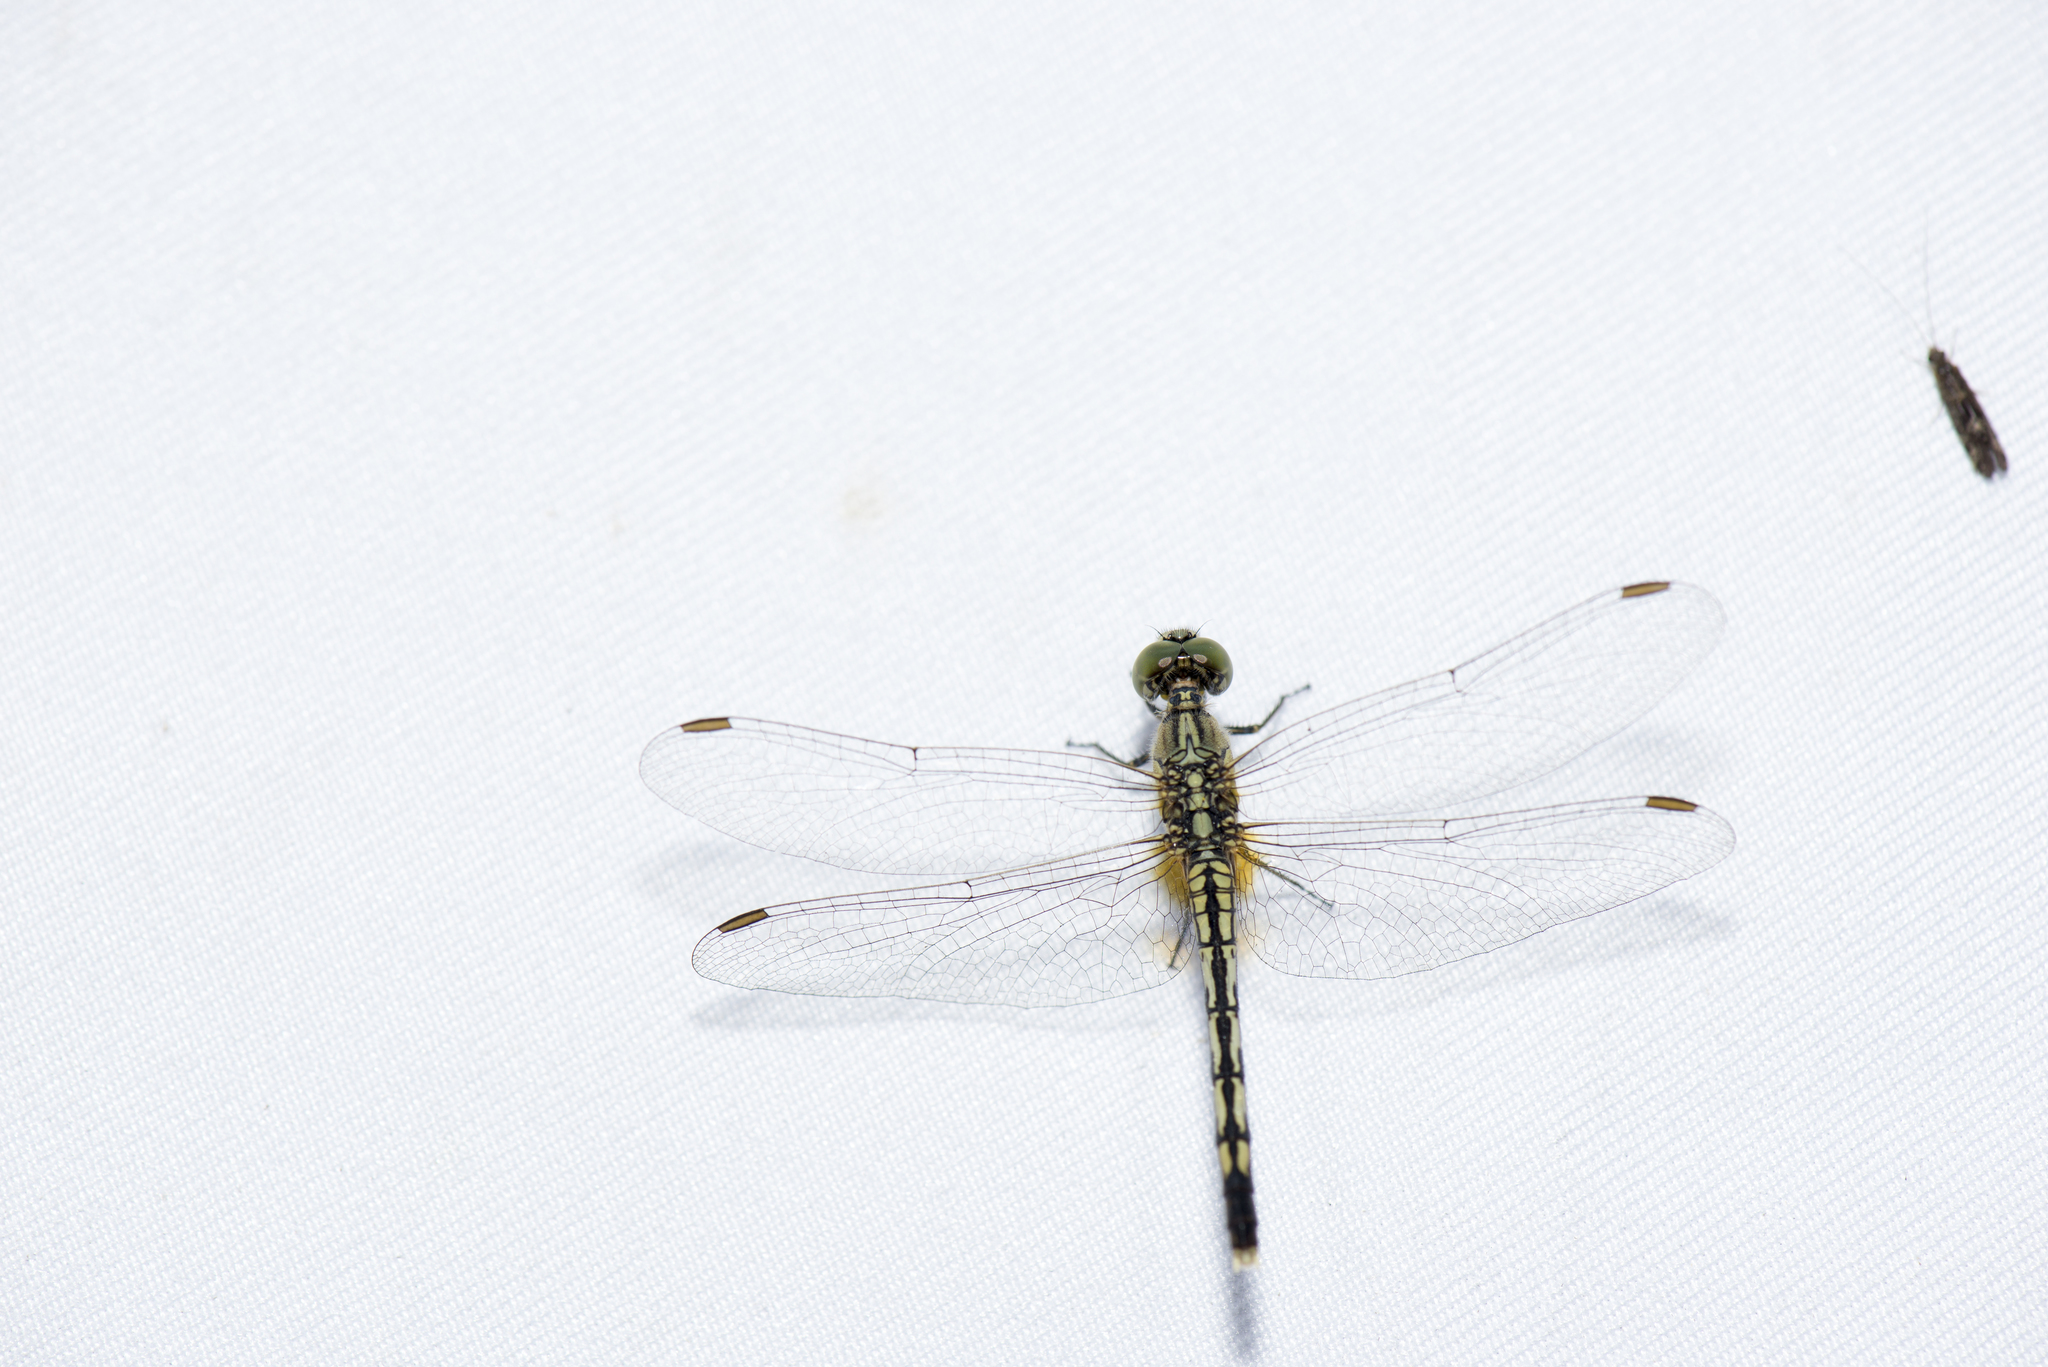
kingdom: Animalia
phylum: Arthropoda
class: Insecta
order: Odonata
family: Libellulidae
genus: Diplacodes
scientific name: Diplacodes trivialis
